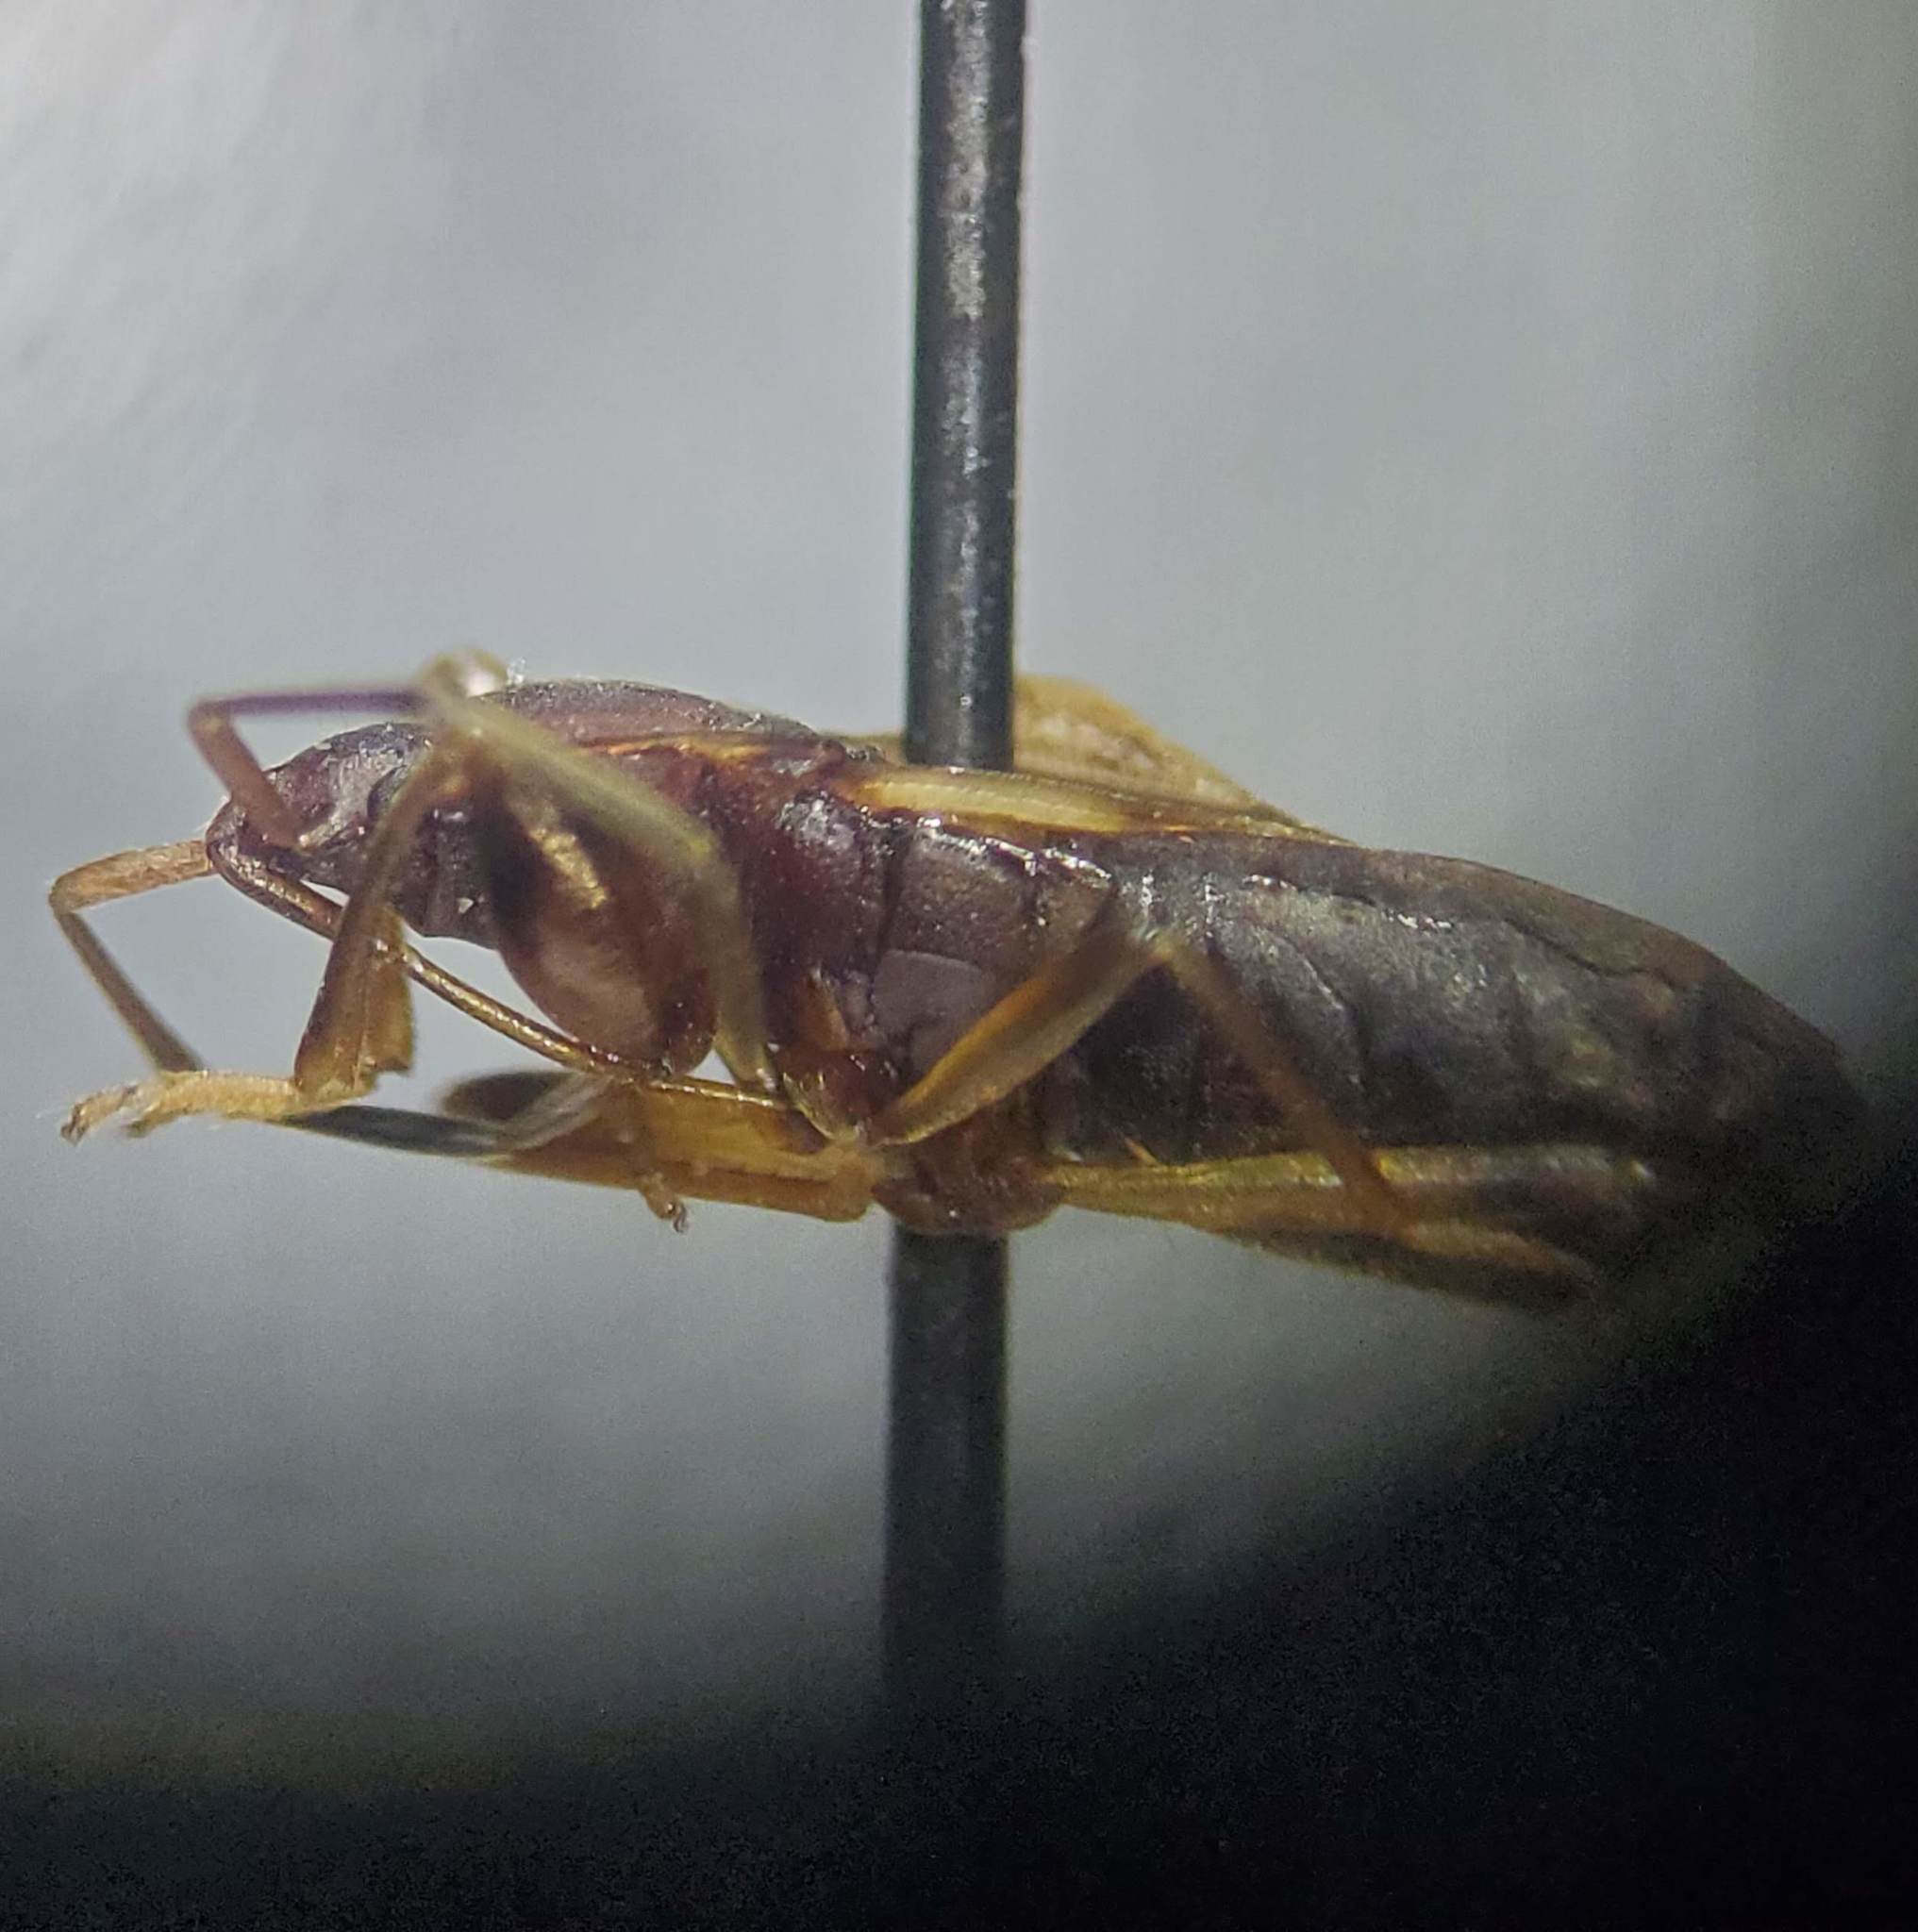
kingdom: Animalia
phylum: Arthropoda
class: Insecta
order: Hemiptera
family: Rhyparochromidae
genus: Togodolentus
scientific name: Togodolentus wrighti
